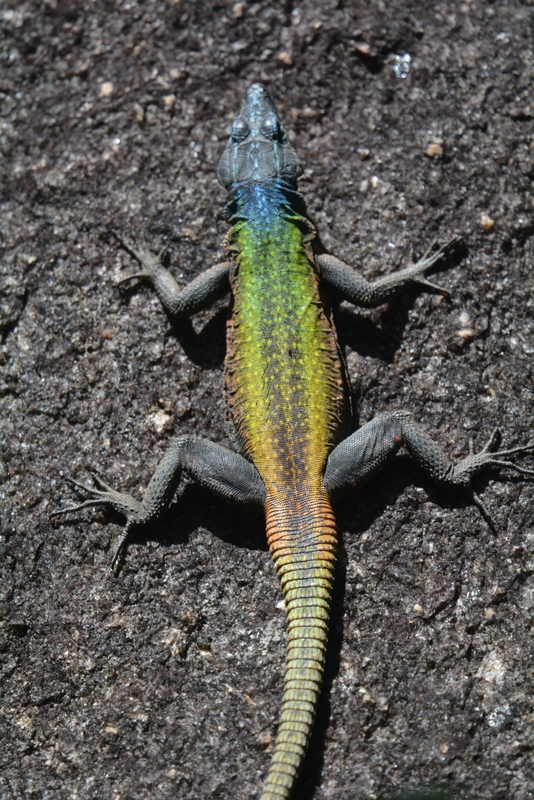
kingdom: Animalia
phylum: Chordata
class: Squamata
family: Cordylidae
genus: Platysaurus
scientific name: Platysaurus intermedius
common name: Common flat lizard
